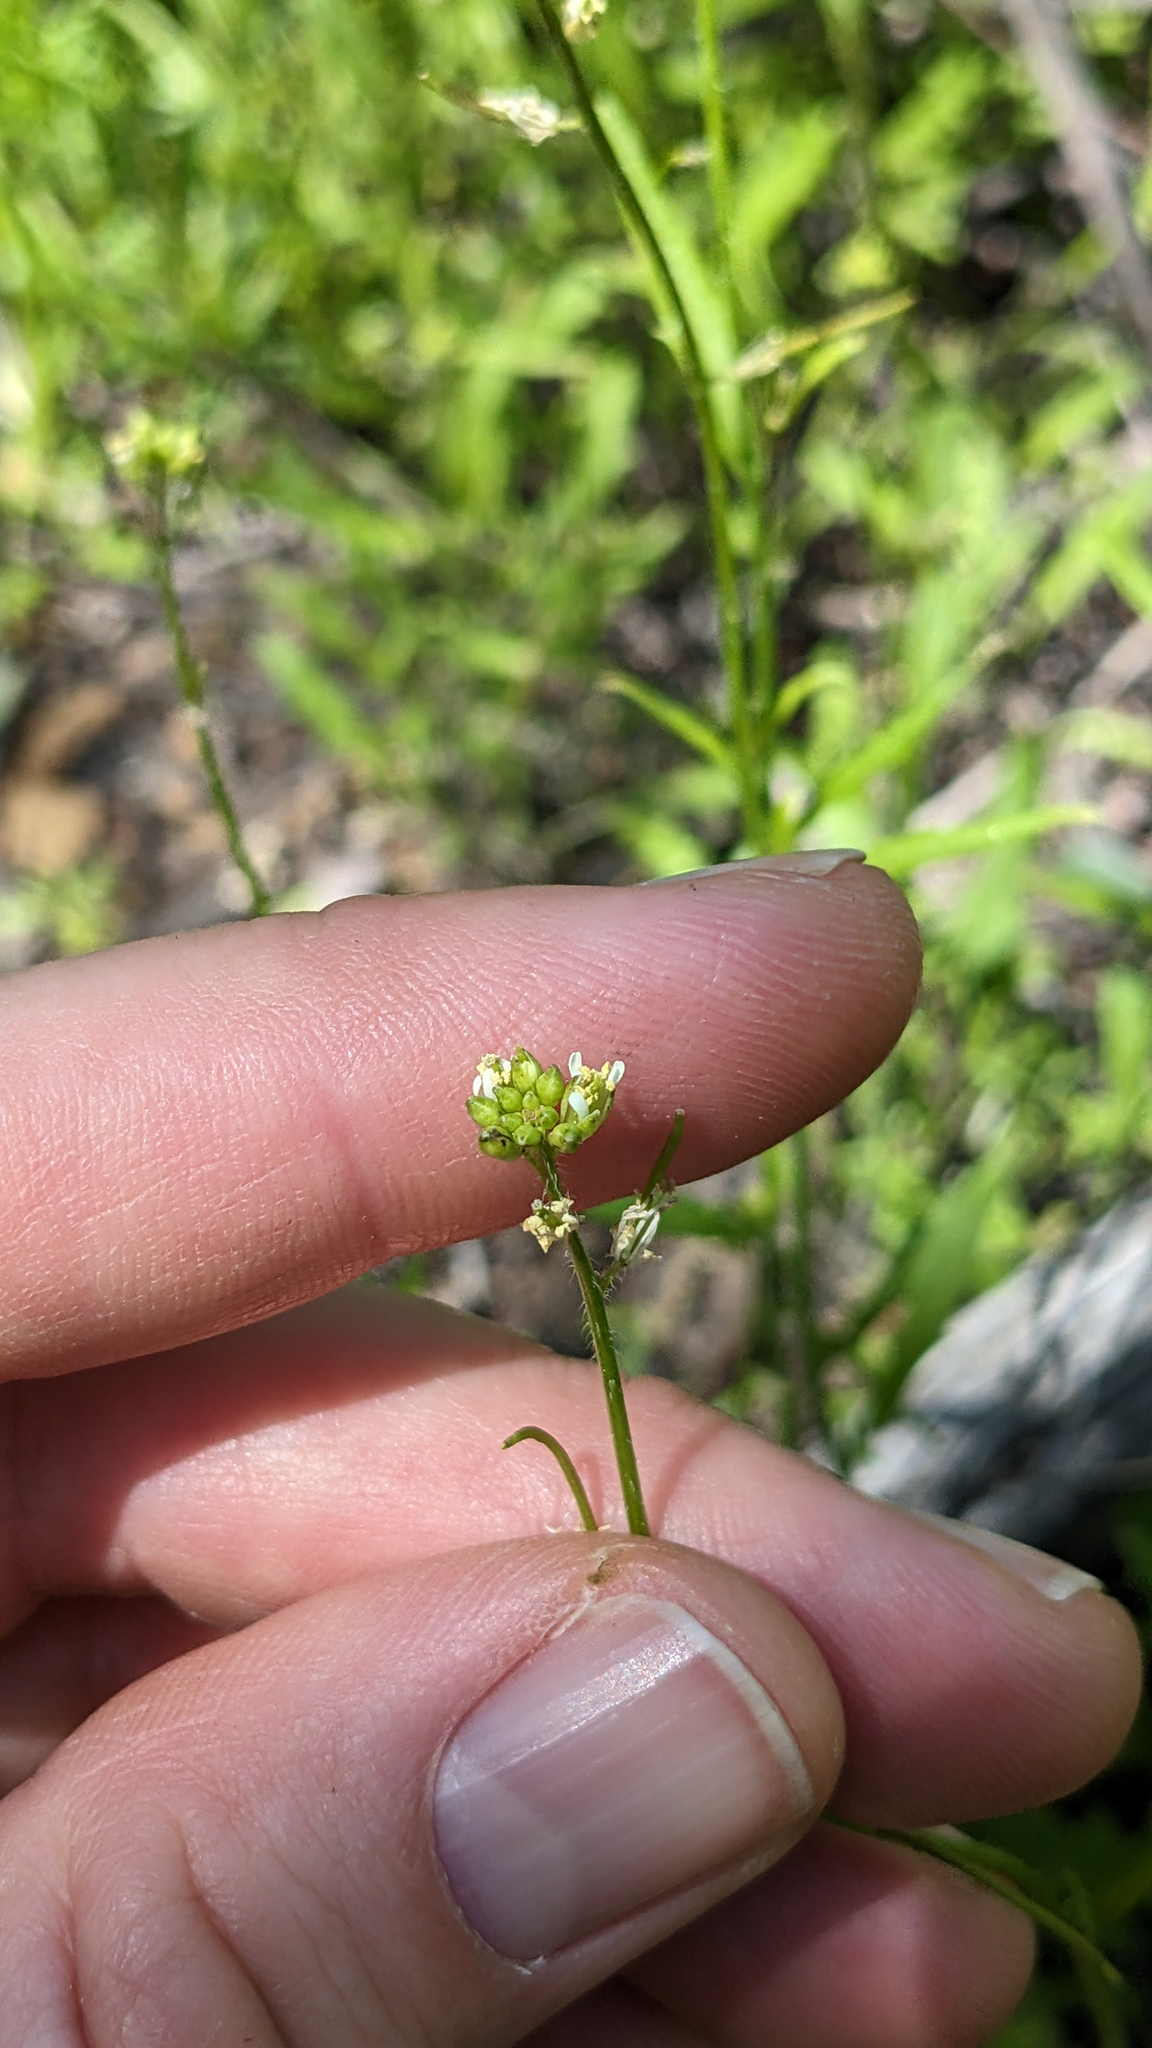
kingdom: Plantae
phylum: Tracheophyta
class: Magnoliopsida
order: Brassicales
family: Brassicaceae
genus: Streptanthus
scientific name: Streptanthus lasiophyllus
